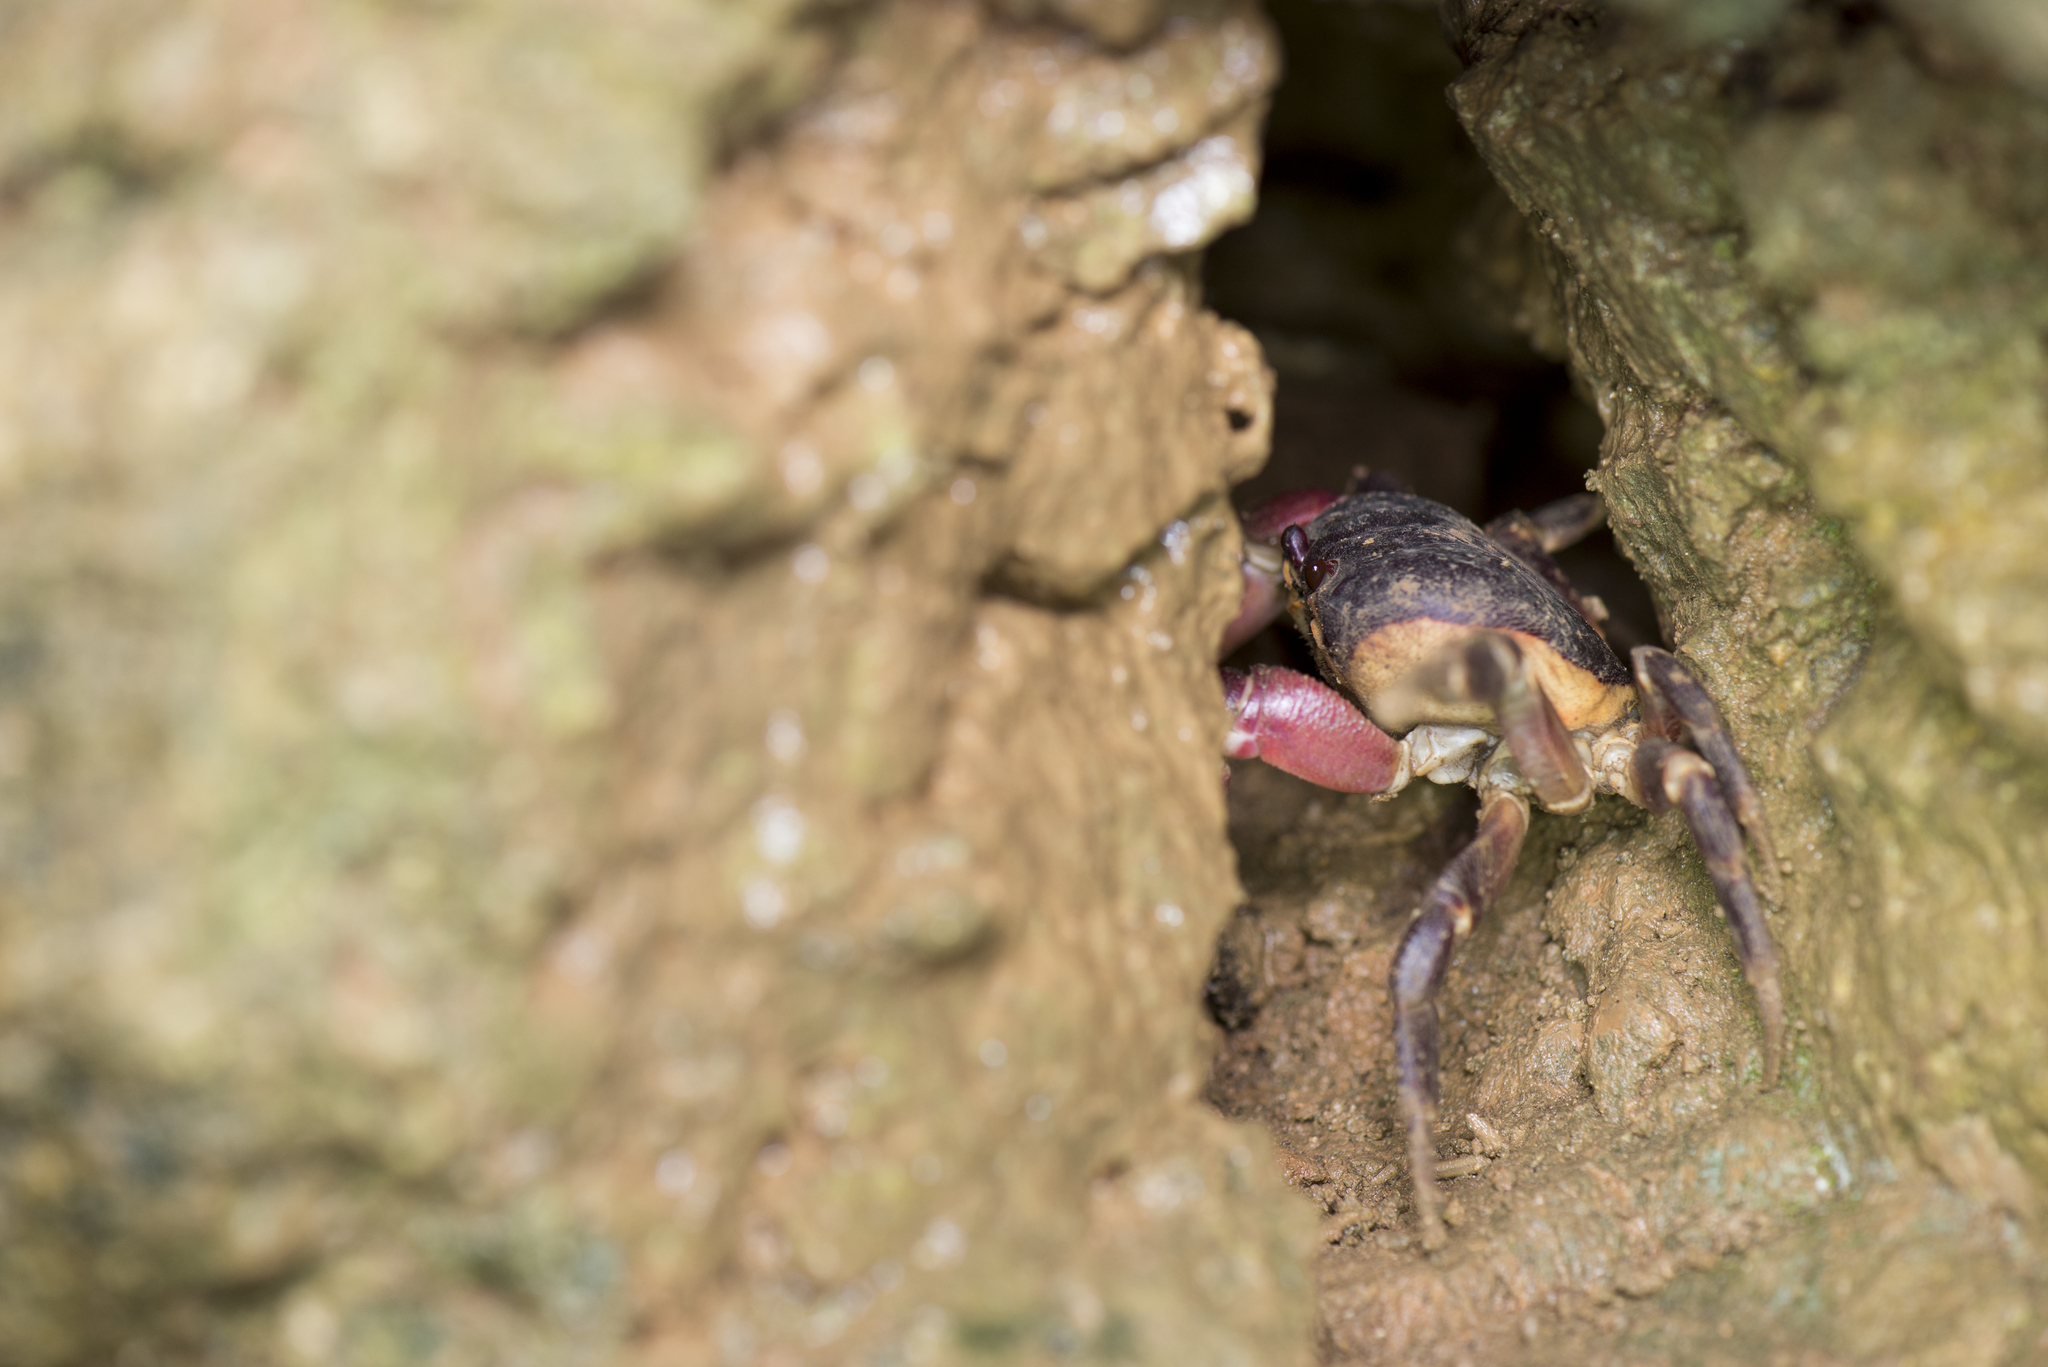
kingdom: Animalia
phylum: Arthropoda
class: Malacostraca
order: Decapoda
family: Gecarcinidae
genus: Gecarcoidea
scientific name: Gecarcoidea lalandii
